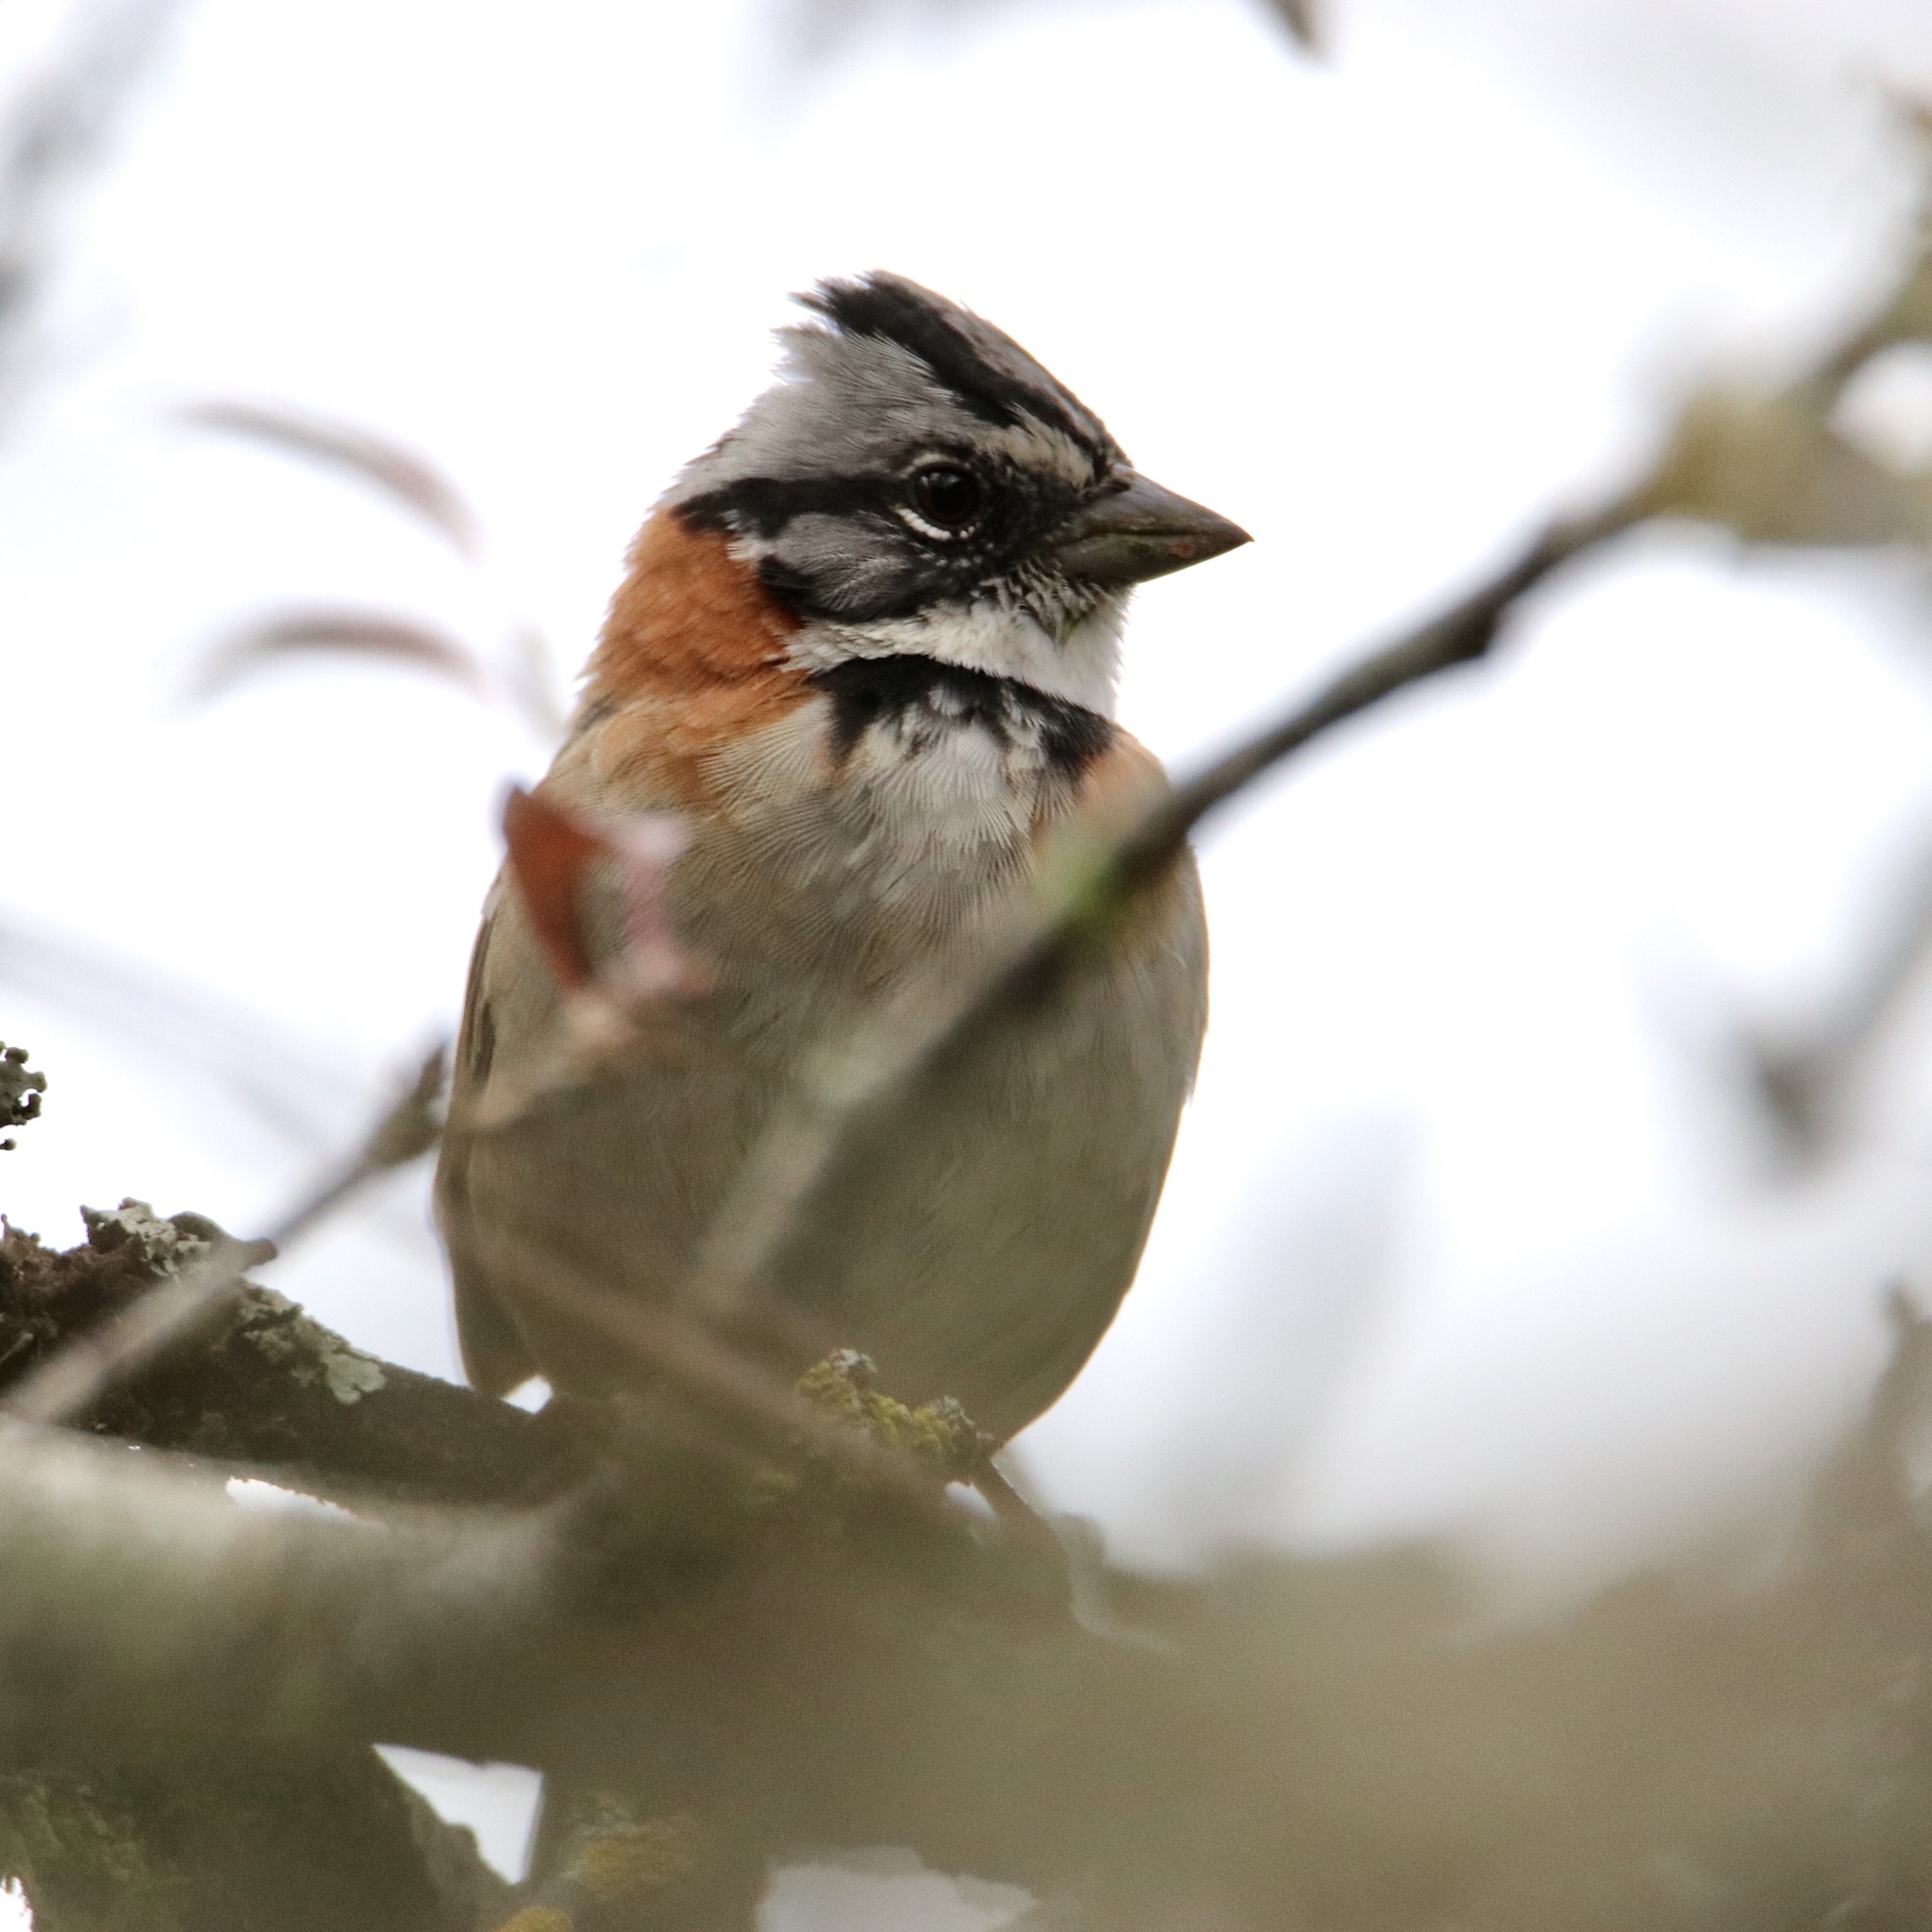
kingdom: Animalia
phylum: Chordata
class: Aves
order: Passeriformes
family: Passerellidae
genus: Zonotrichia
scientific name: Zonotrichia capensis
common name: Rufous-collared sparrow
